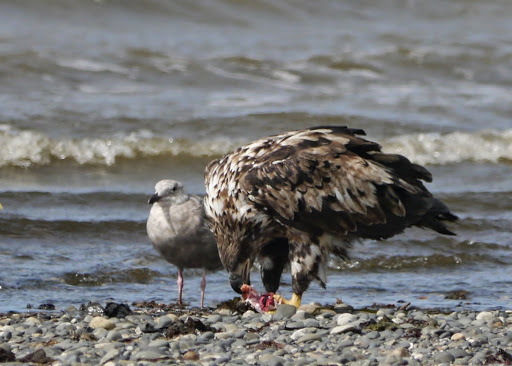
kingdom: Animalia
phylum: Chordata
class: Aves
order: Accipitriformes
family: Accipitridae
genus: Haliaeetus
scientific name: Haliaeetus leucocephalus
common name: Bald eagle
